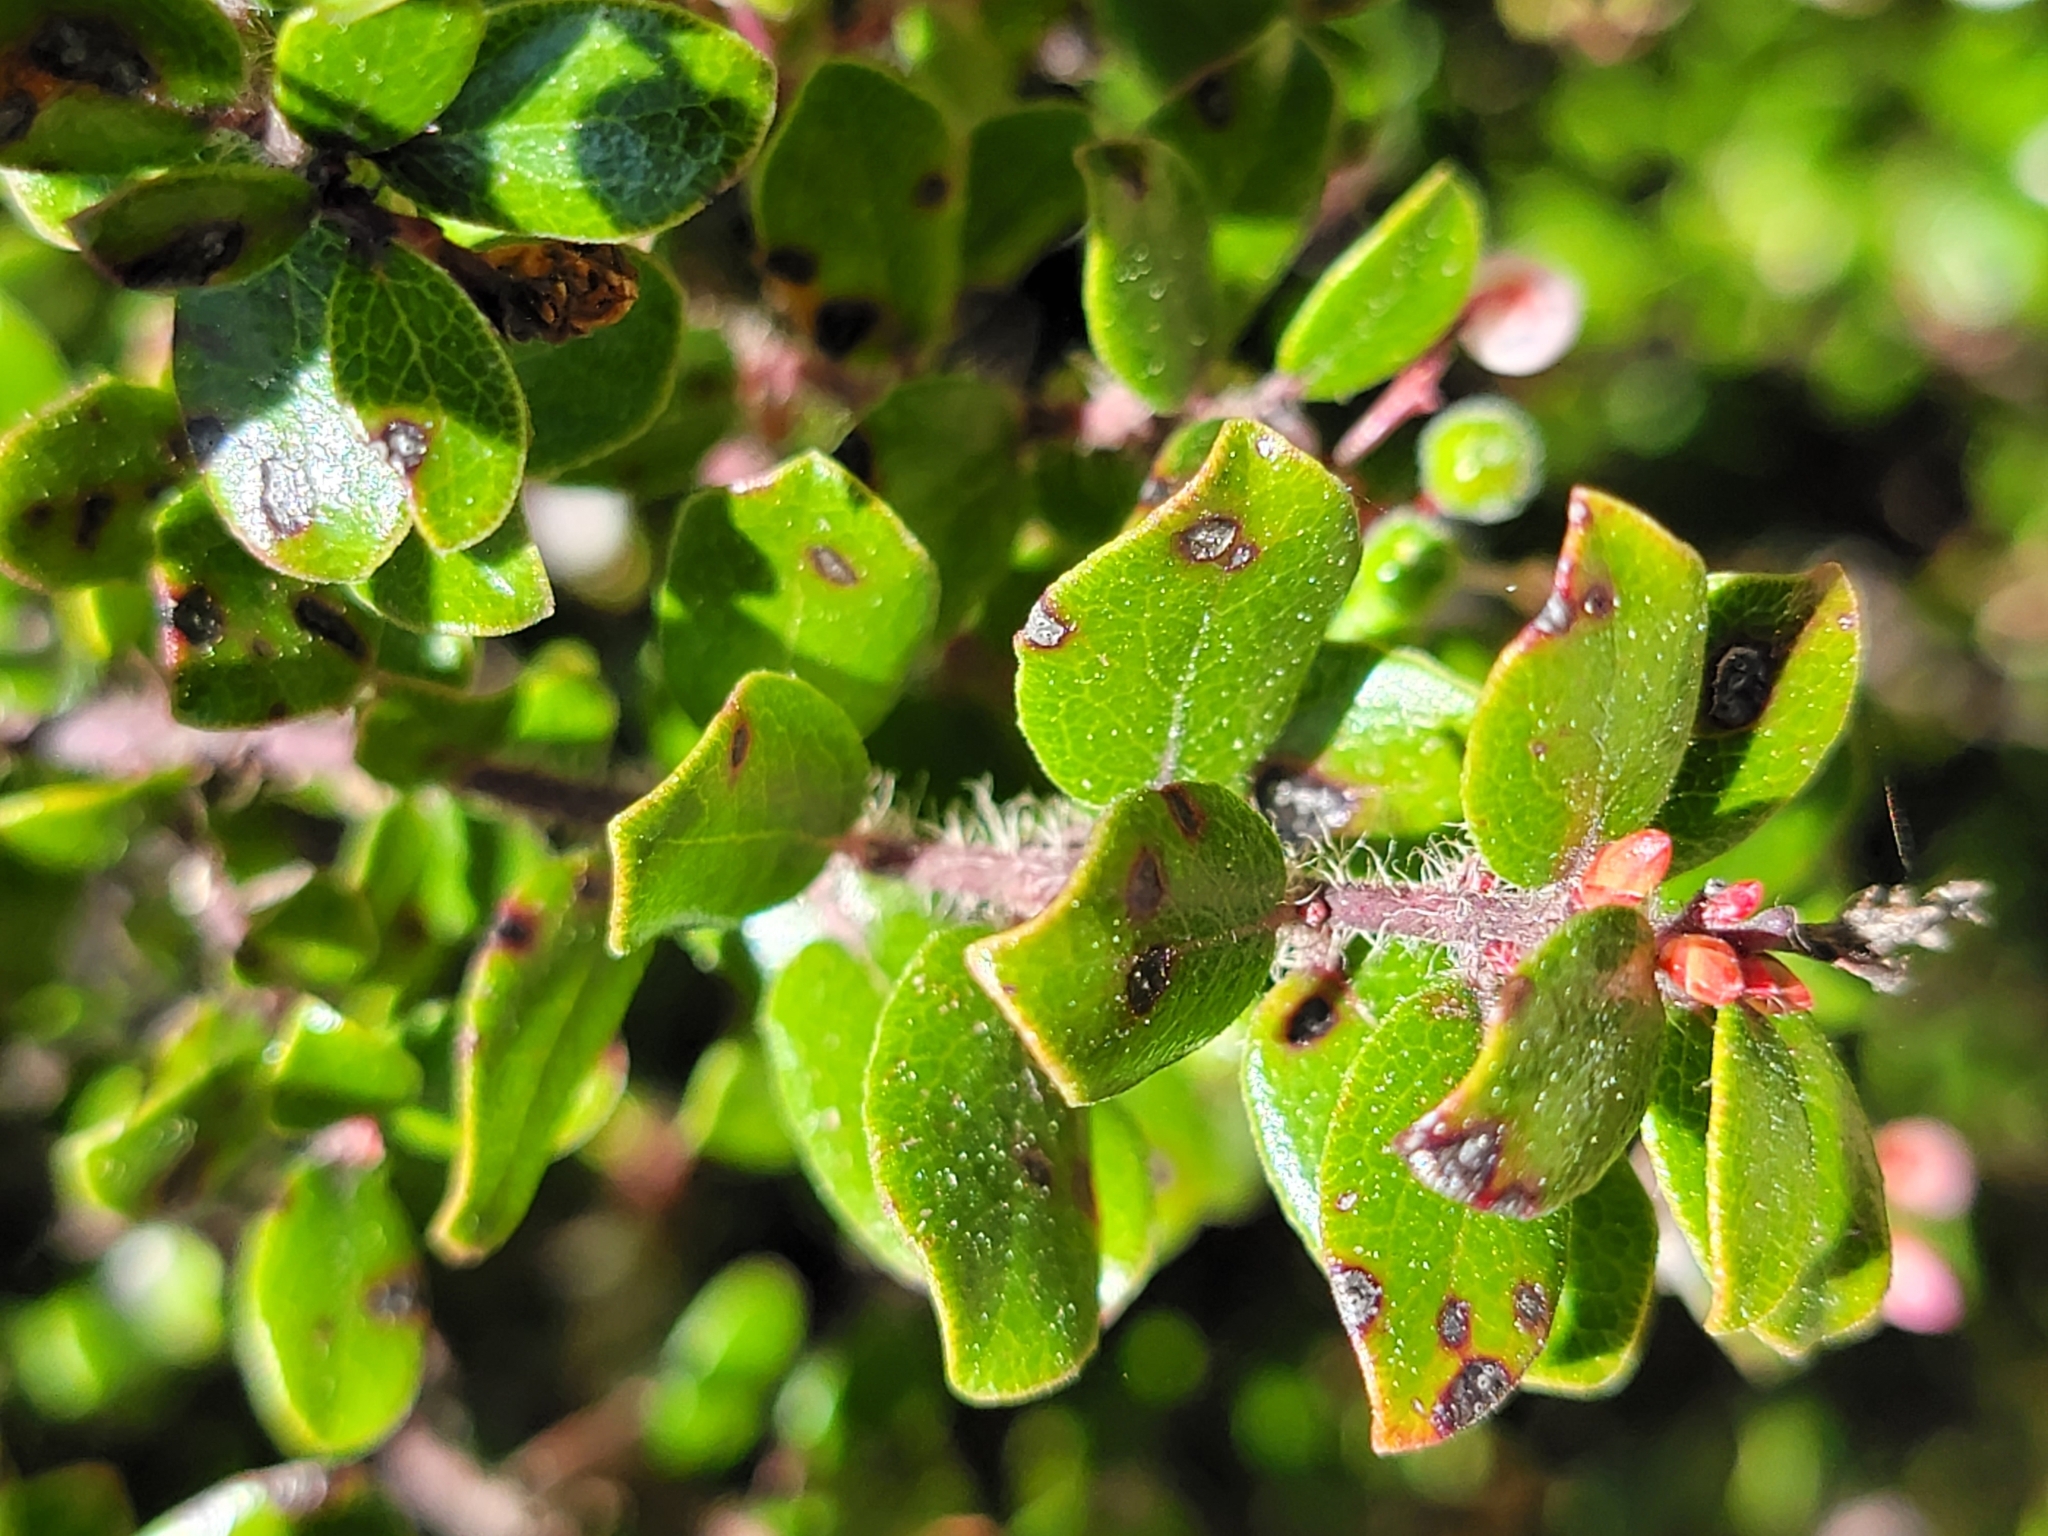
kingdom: Plantae
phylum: Tracheophyta
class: Magnoliopsida
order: Ericales
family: Ericaceae
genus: Arctostaphylos
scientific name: Arctostaphylos nummularia
